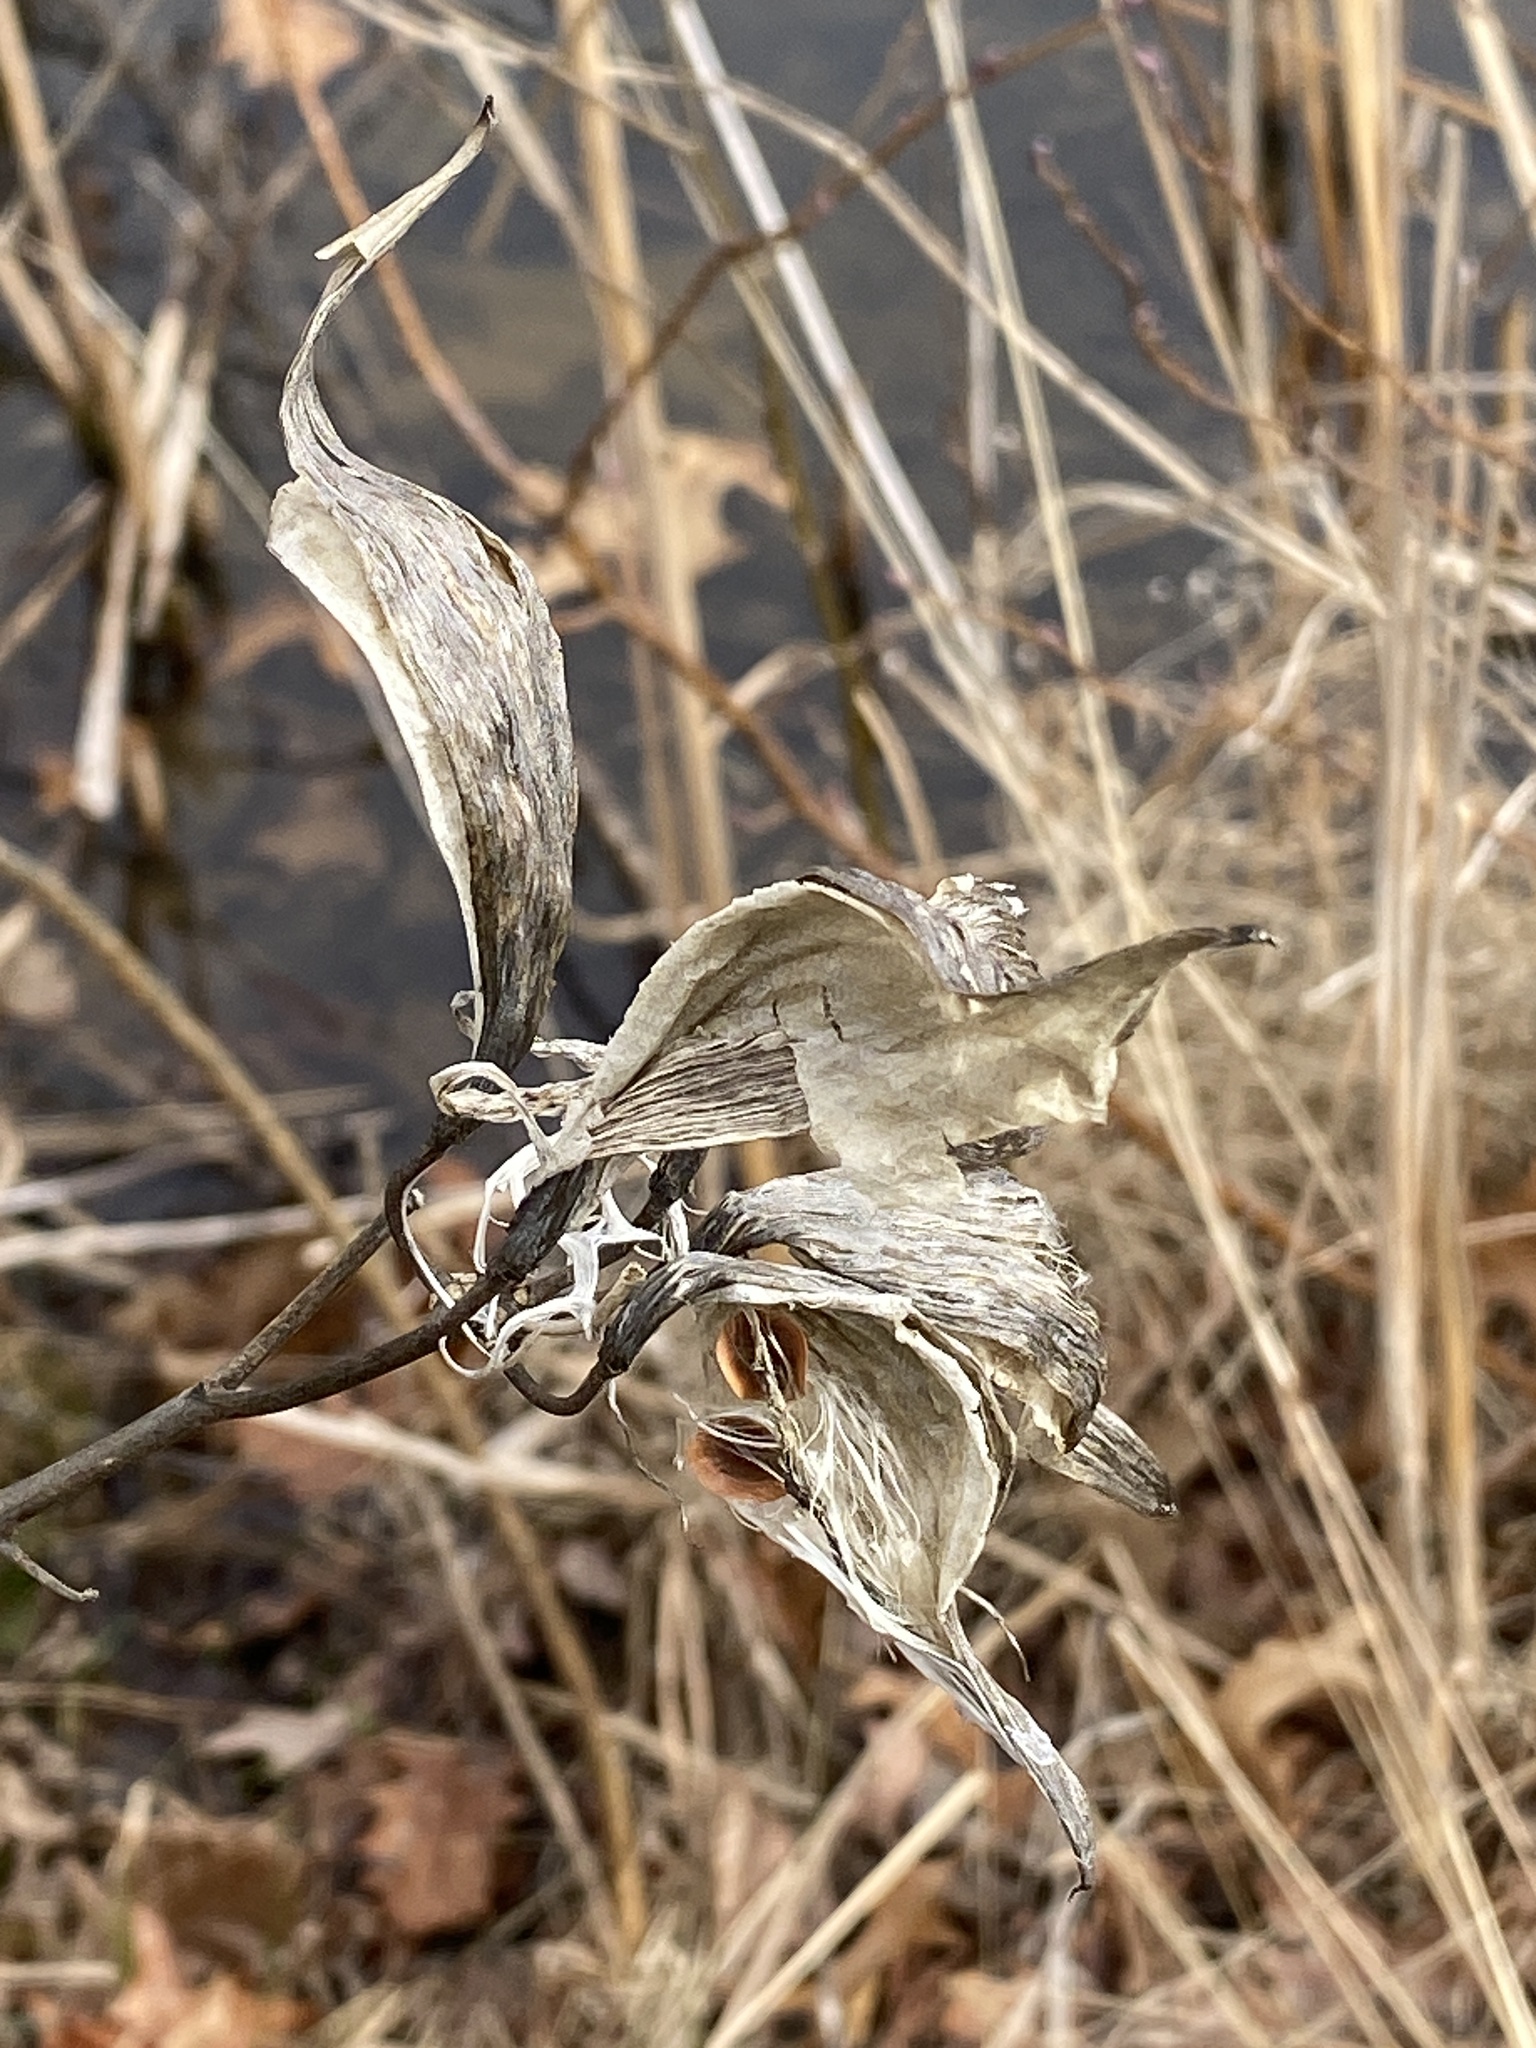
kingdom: Plantae
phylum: Tracheophyta
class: Magnoliopsida
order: Gentianales
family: Apocynaceae
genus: Asclepias
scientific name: Asclepias incarnata
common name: Swamp milkweed
